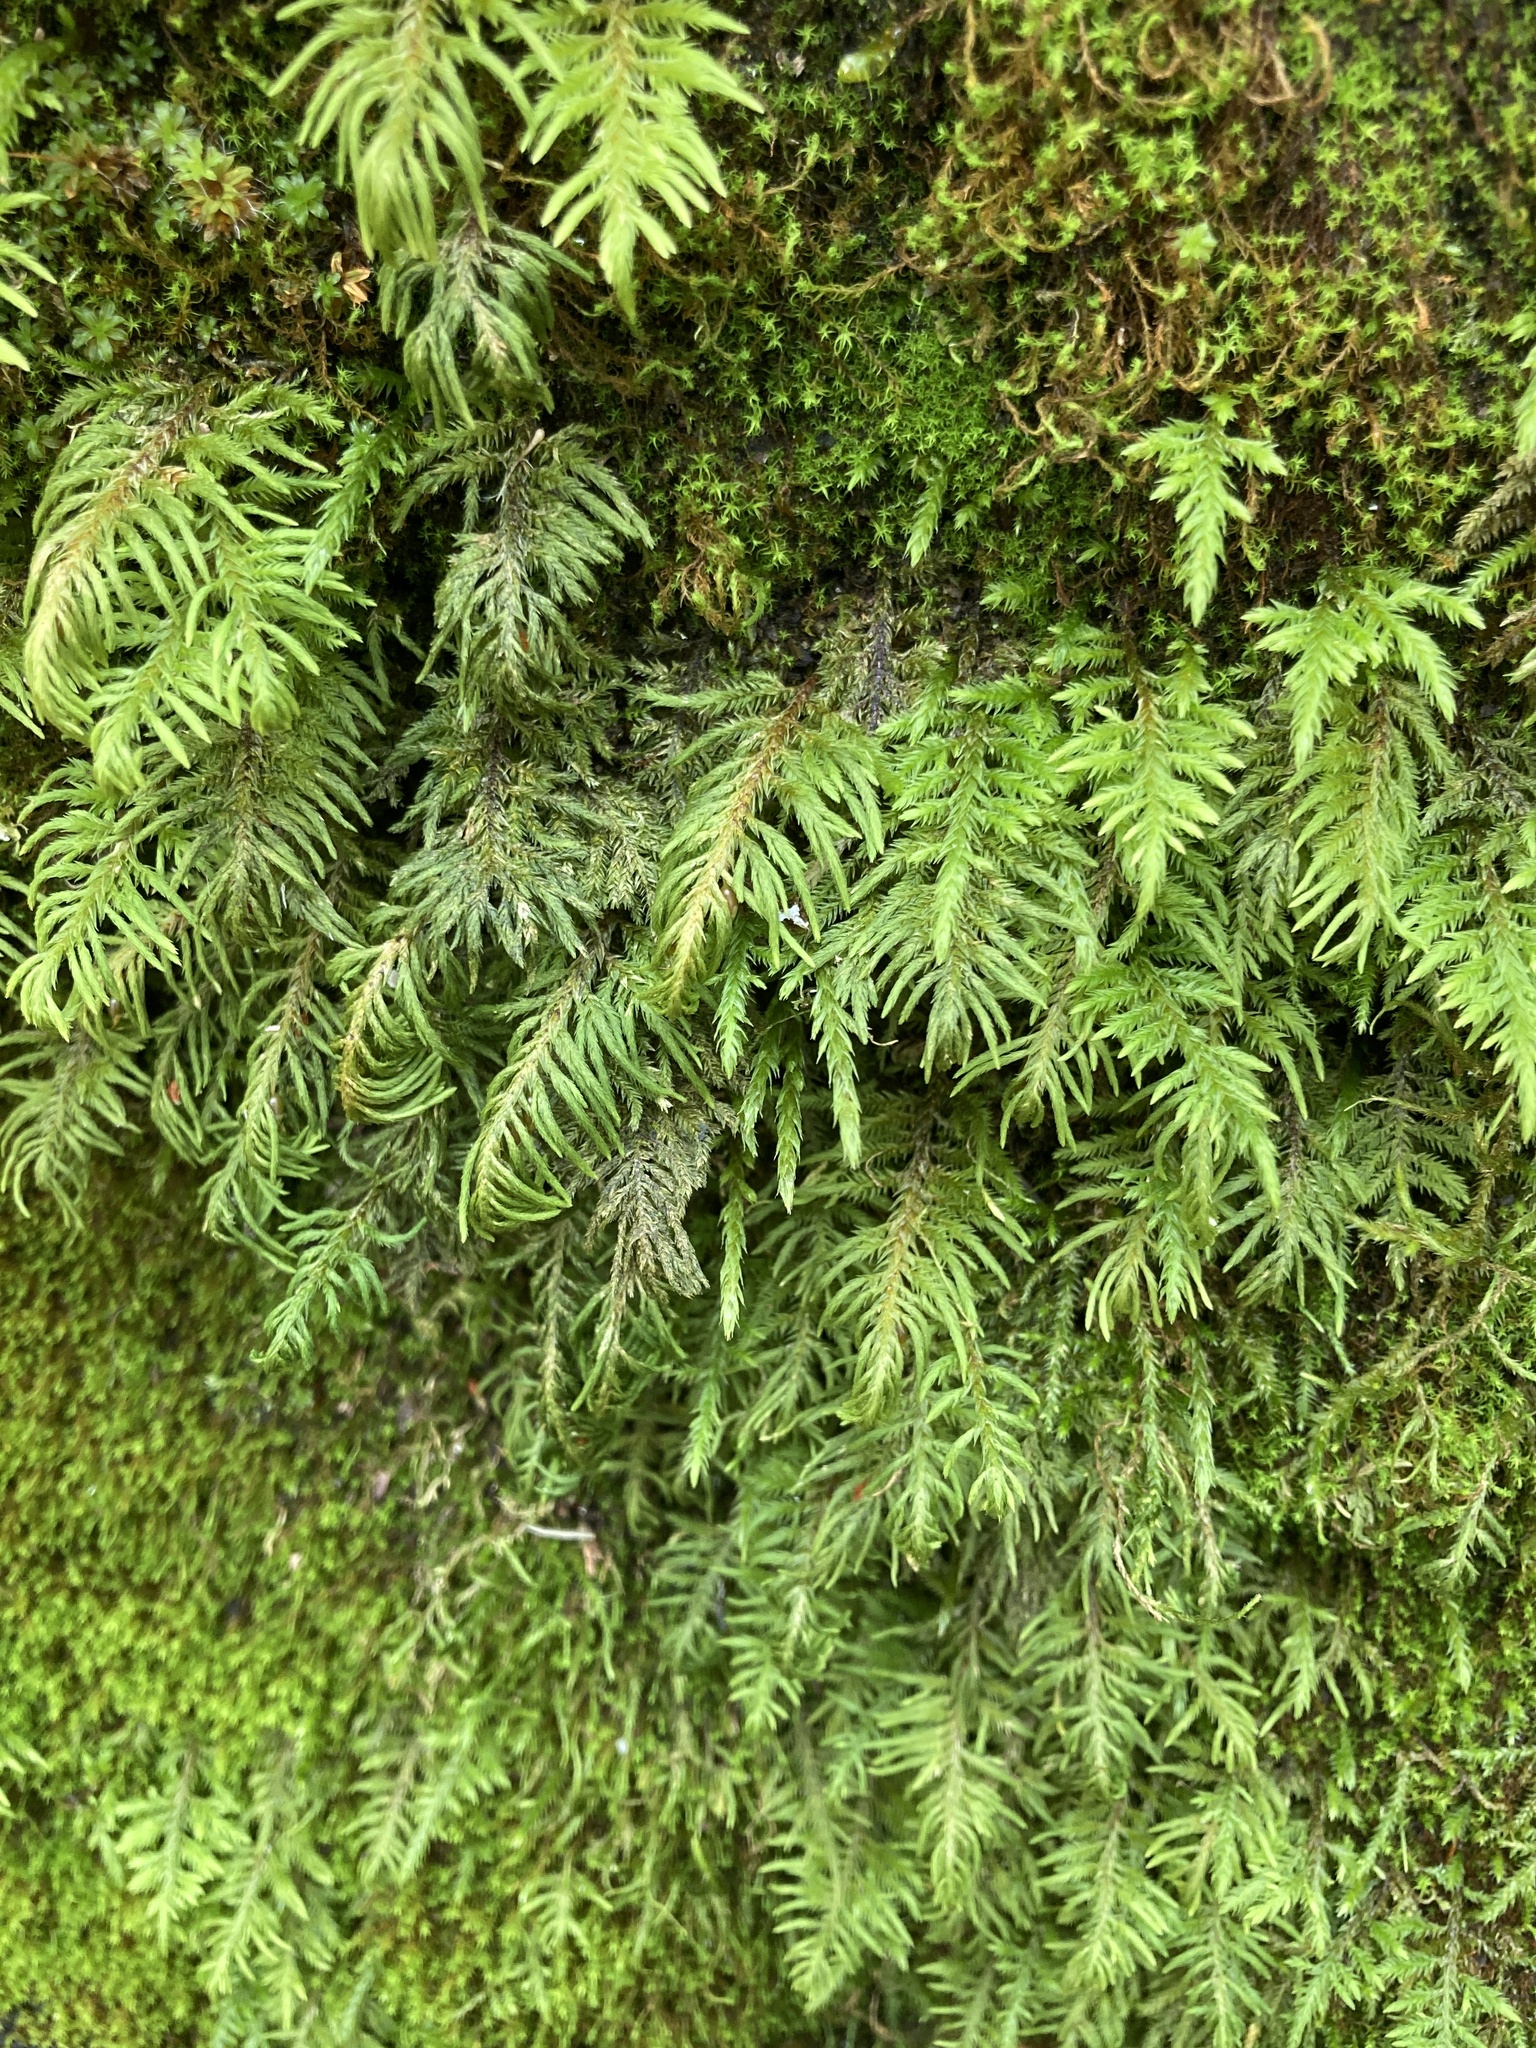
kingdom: Plantae
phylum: Bryophyta
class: Bryopsida
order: Hypnales
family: Cryphaeaceae
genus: Dendroalsia
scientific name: Dendroalsia abietina
